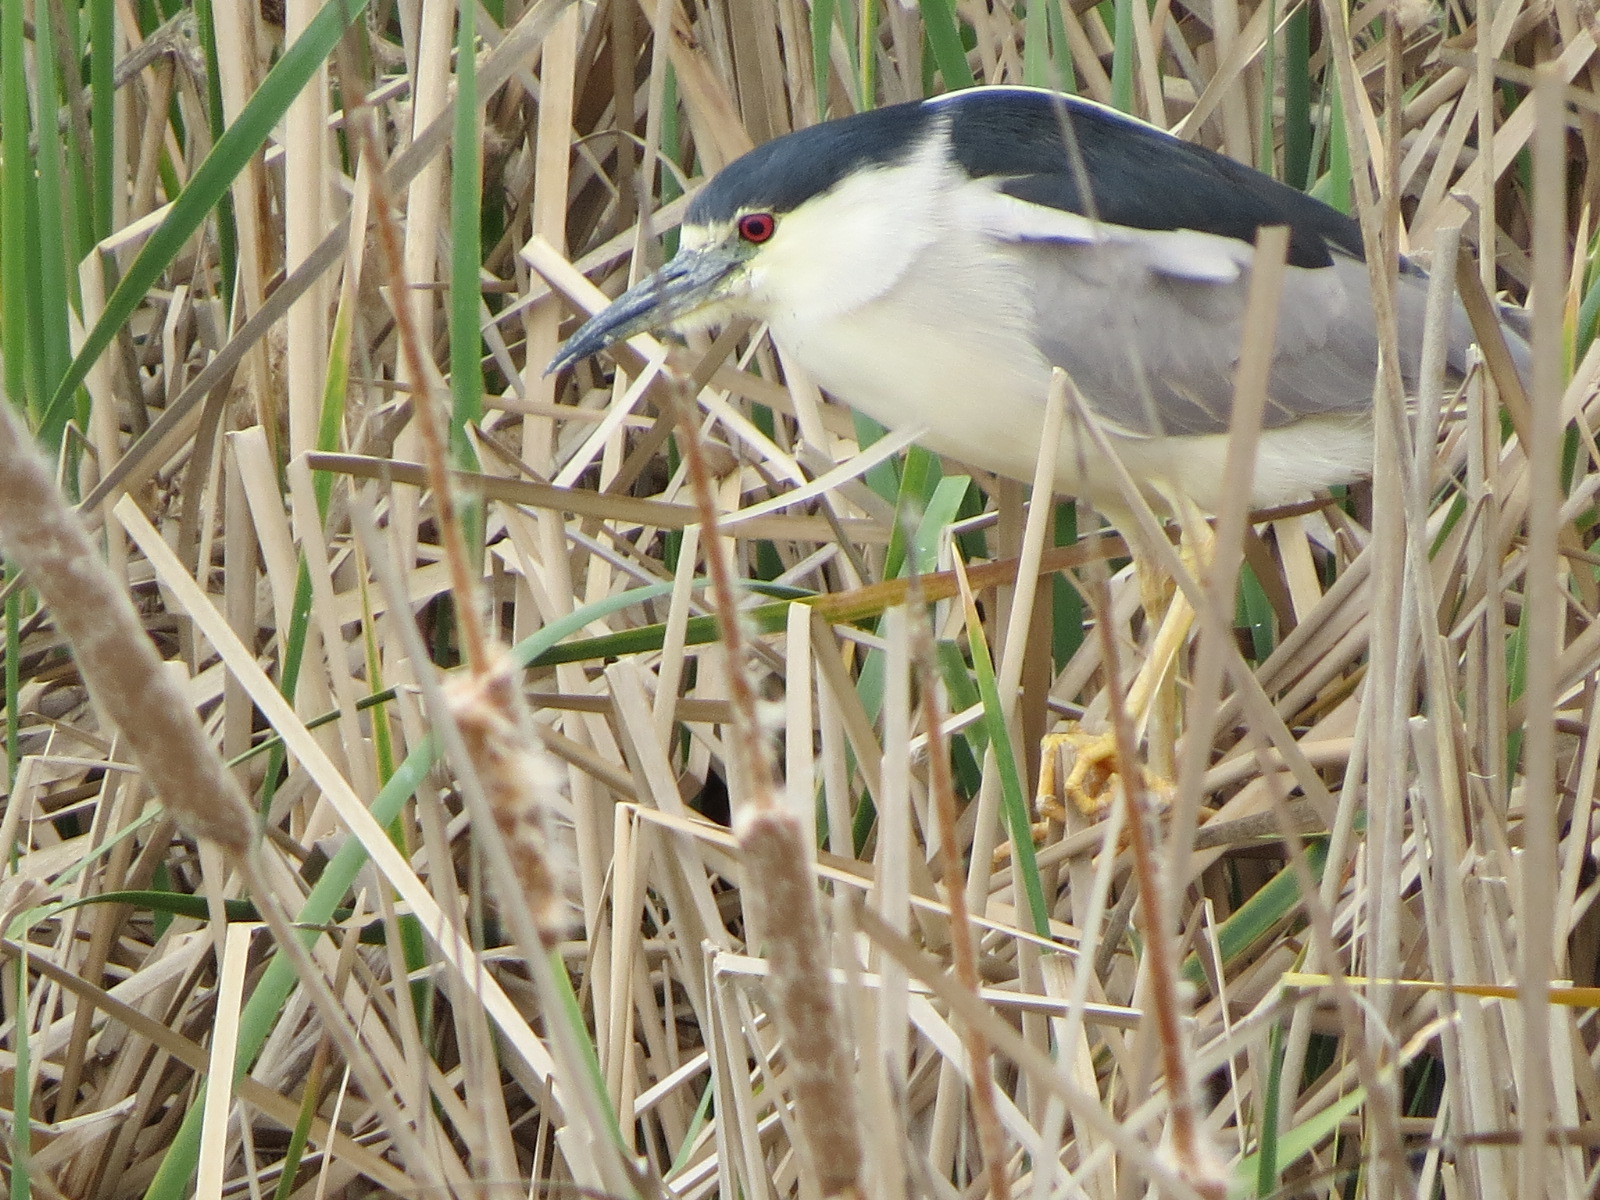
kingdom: Animalia
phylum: Chordata
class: Aves
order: Pelecaniformes
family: Ardeidae
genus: Nycticorax
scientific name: Nycticorax nycticorax
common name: Black-crowned night heron
